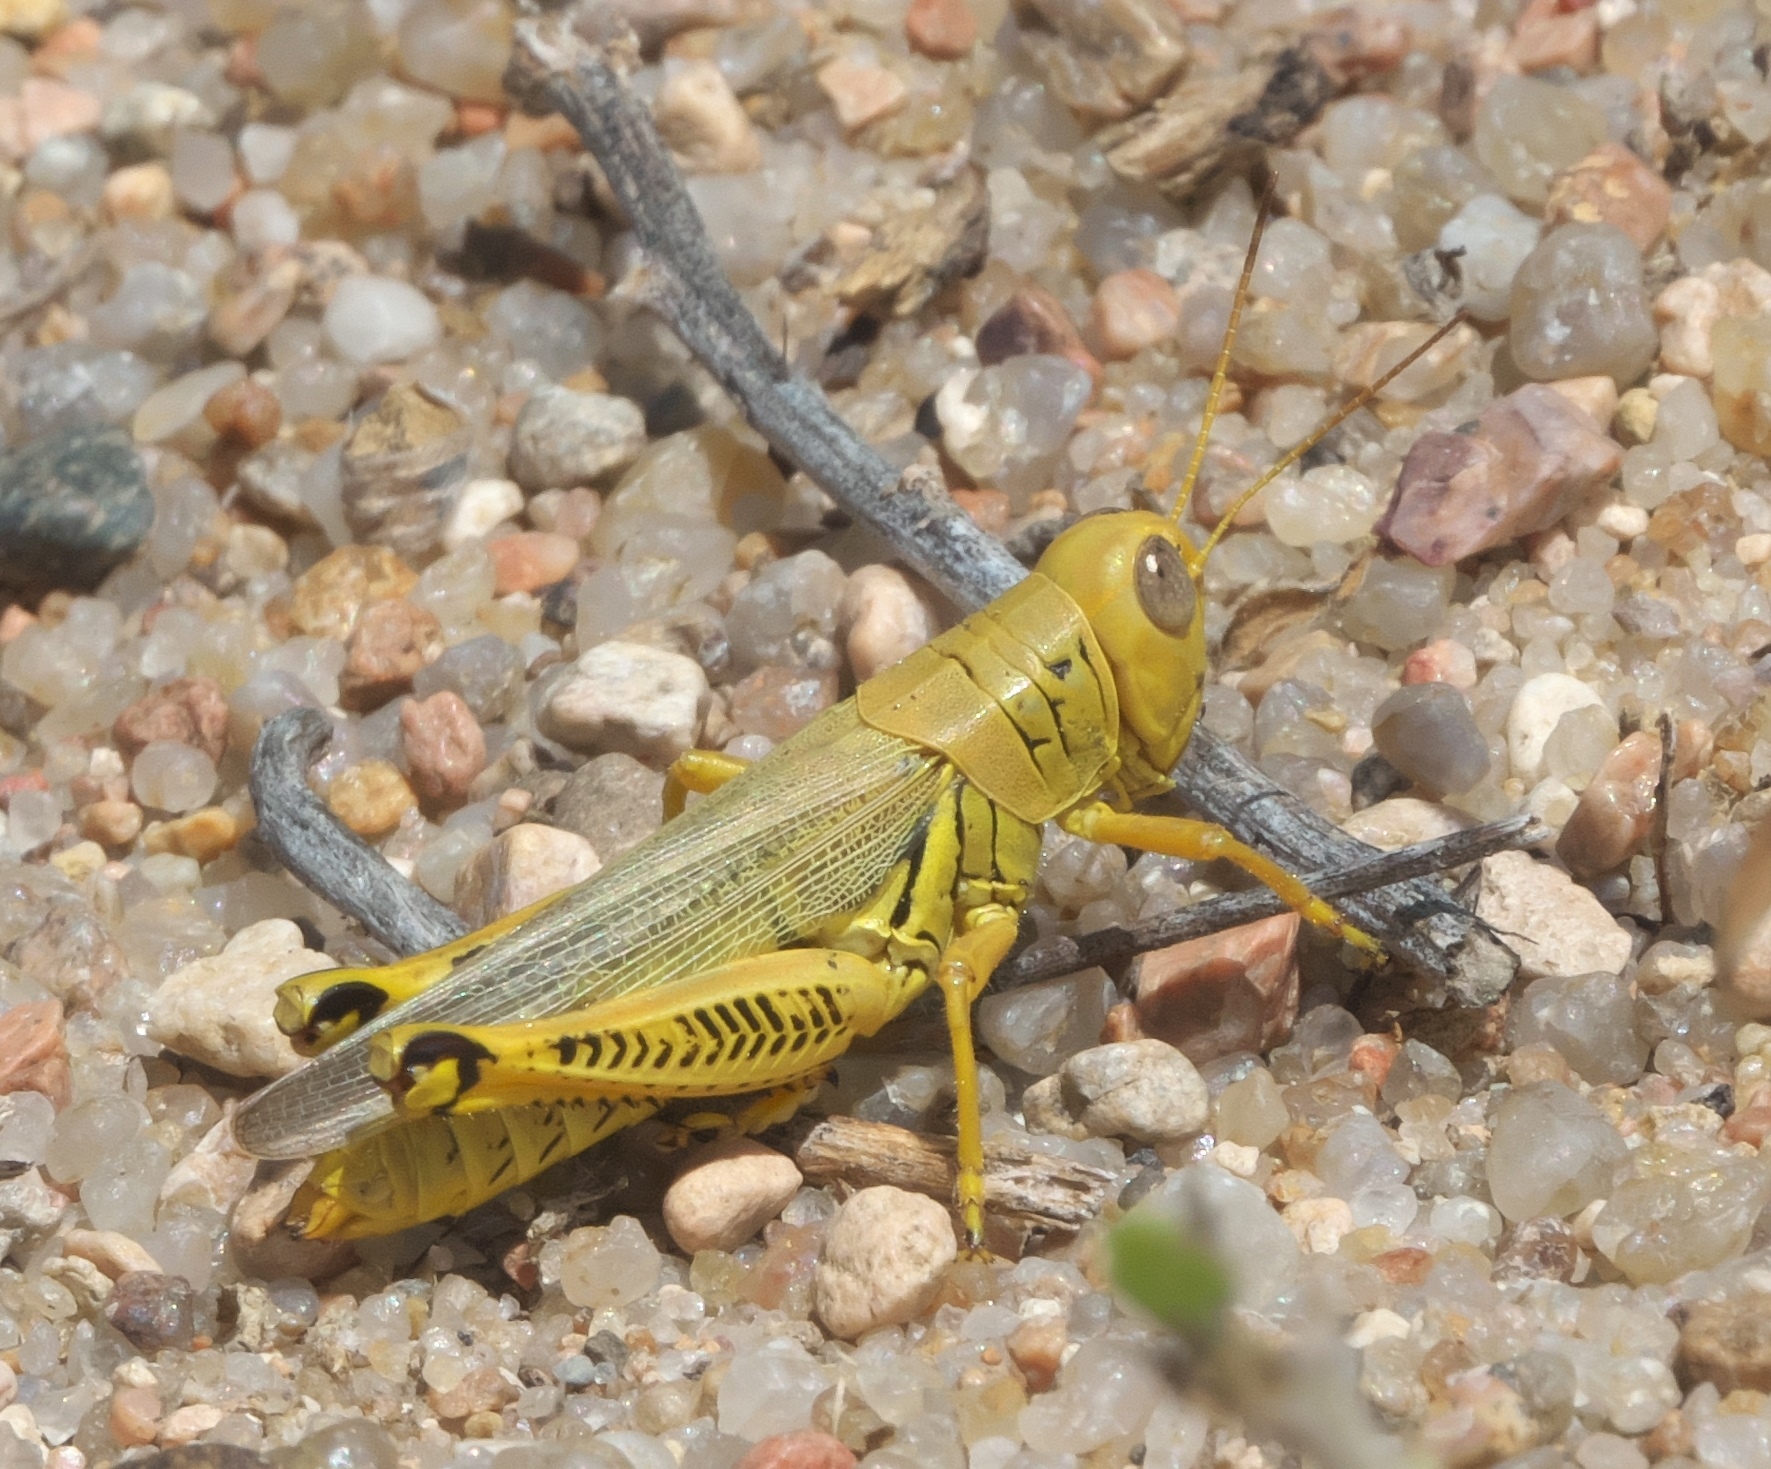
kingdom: Animalia
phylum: Arthropoda
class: Insecta
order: Orthoptera
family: Acrididae
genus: Melanoplus
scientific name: Melanoplus differentialis
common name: Differential grasshopper
